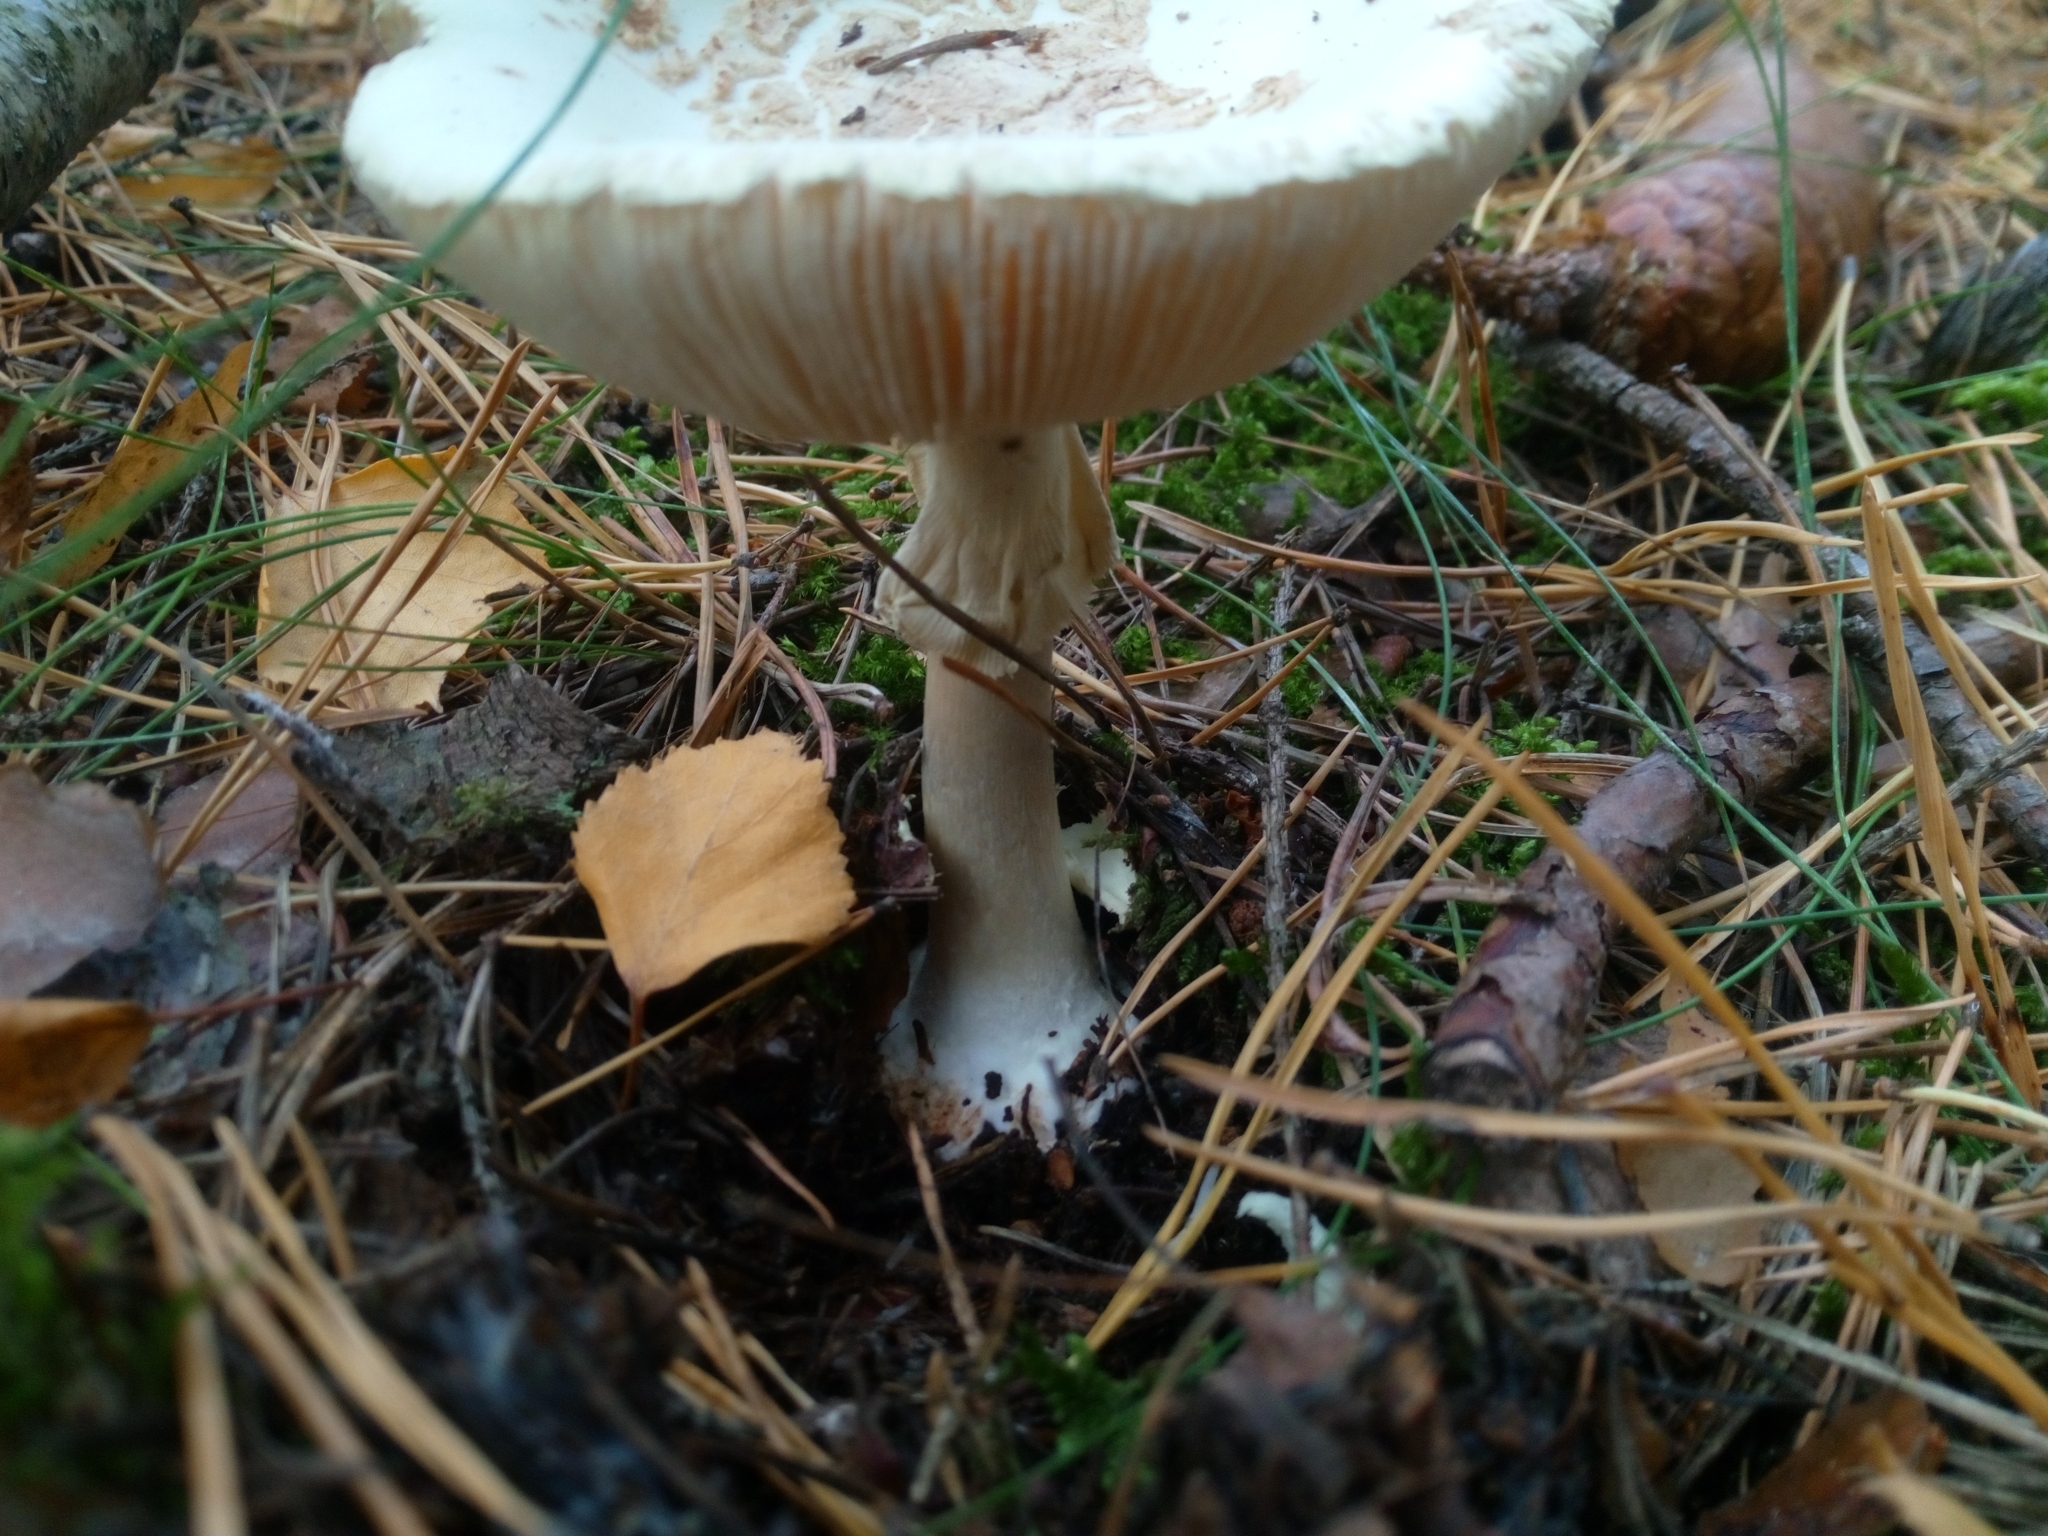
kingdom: Fungi
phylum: Basidiomycota
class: Agaricomycetes
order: Agaricales
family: Amanitaceae
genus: Amanita
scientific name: Amanita citrina
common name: False death-cap
